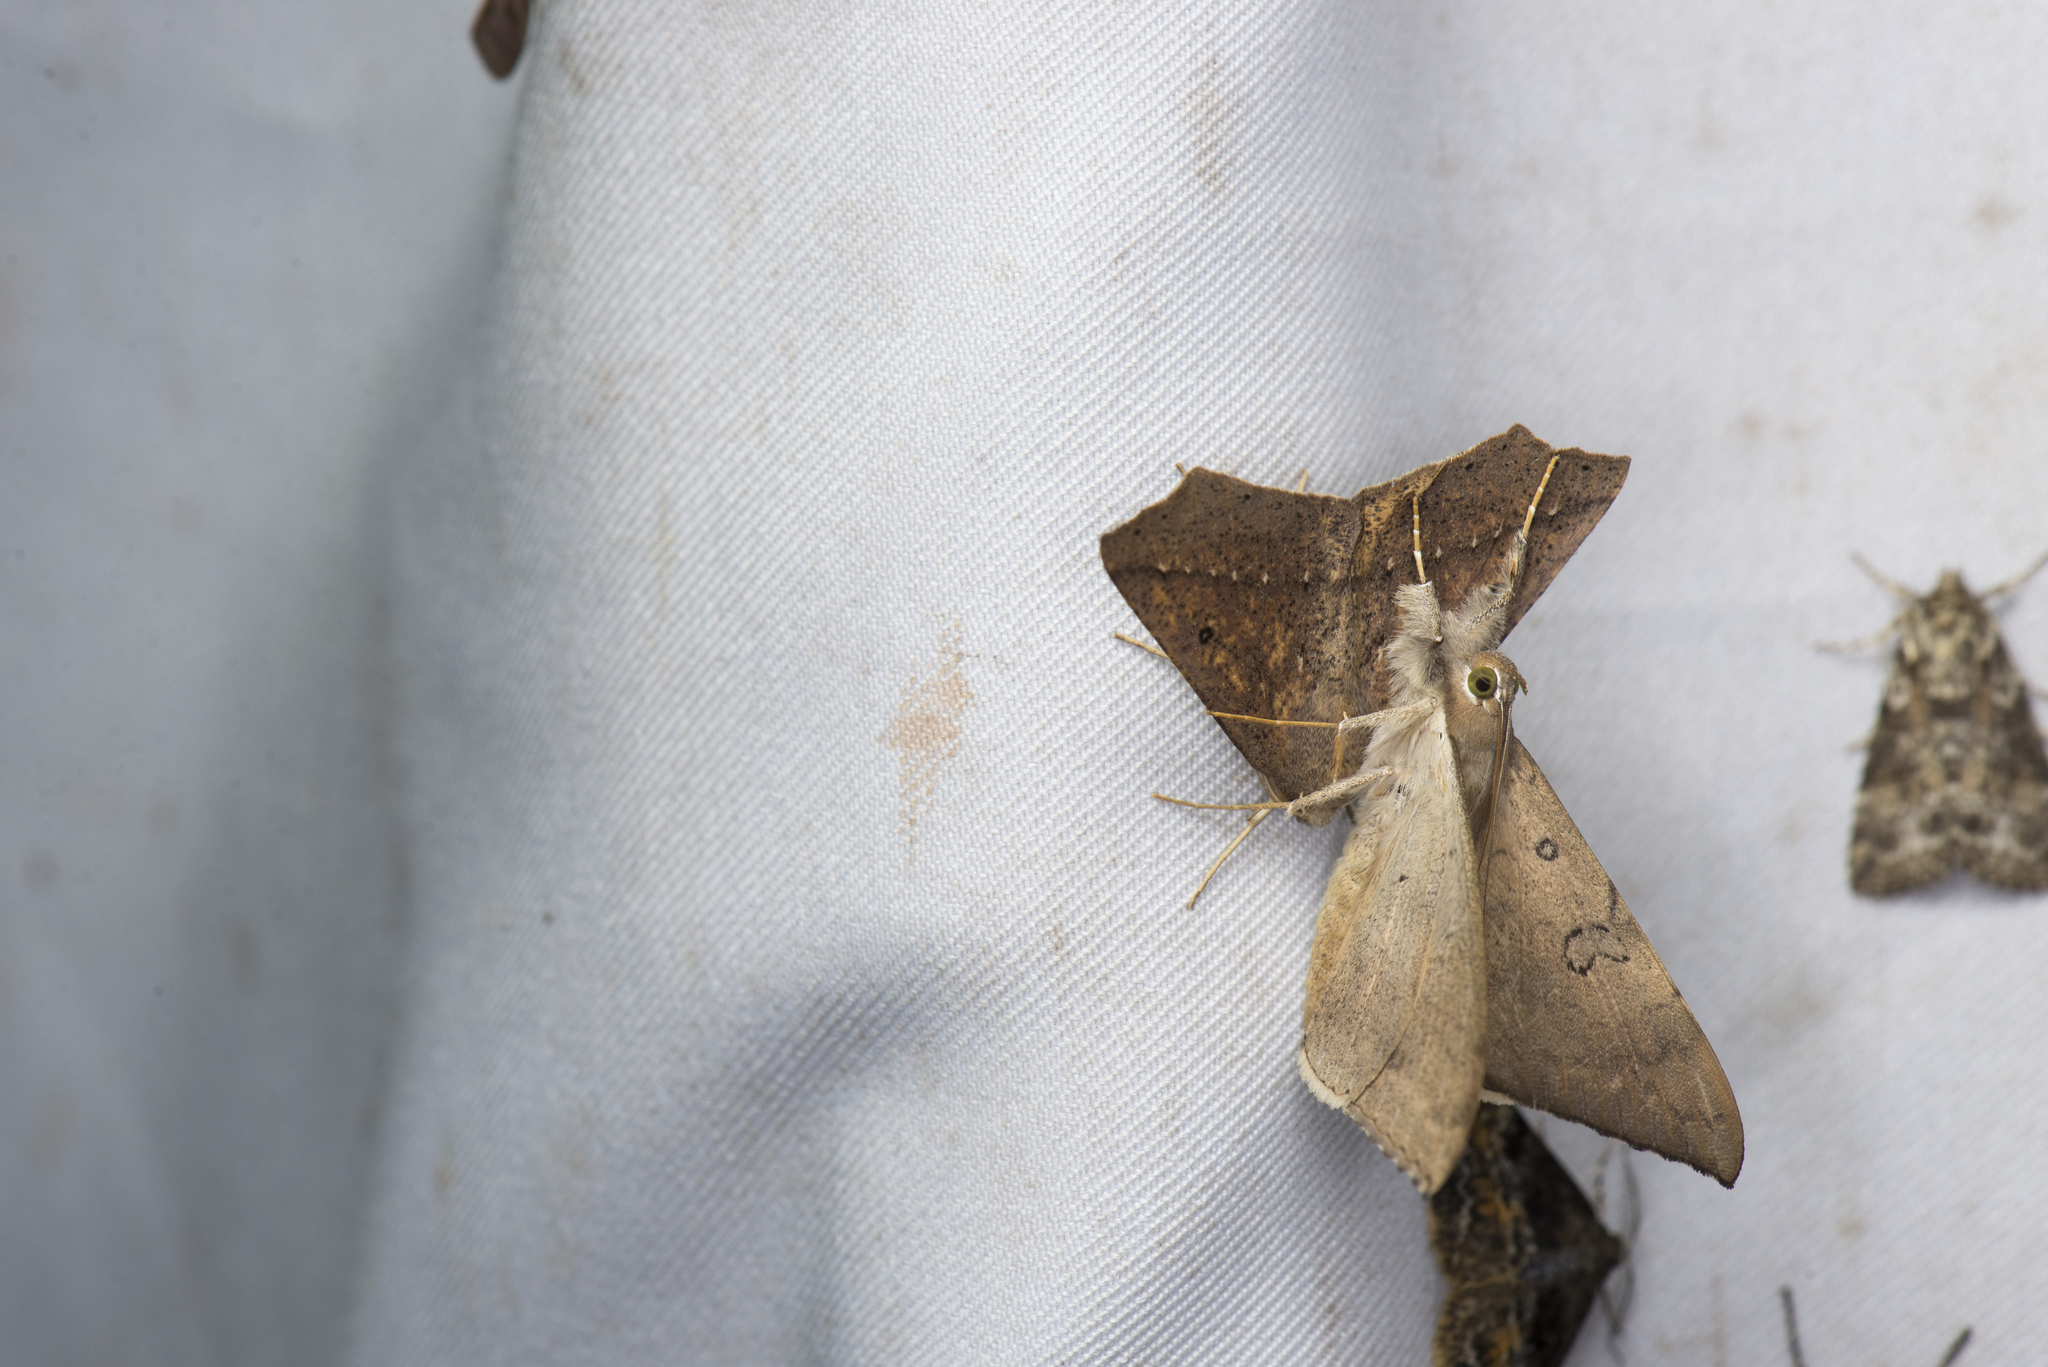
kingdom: Animalia
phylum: Arthropoda
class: Insecta
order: Lepidoptera
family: Erebidae
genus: Oxyodes
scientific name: Oxyodes scrobiculata
